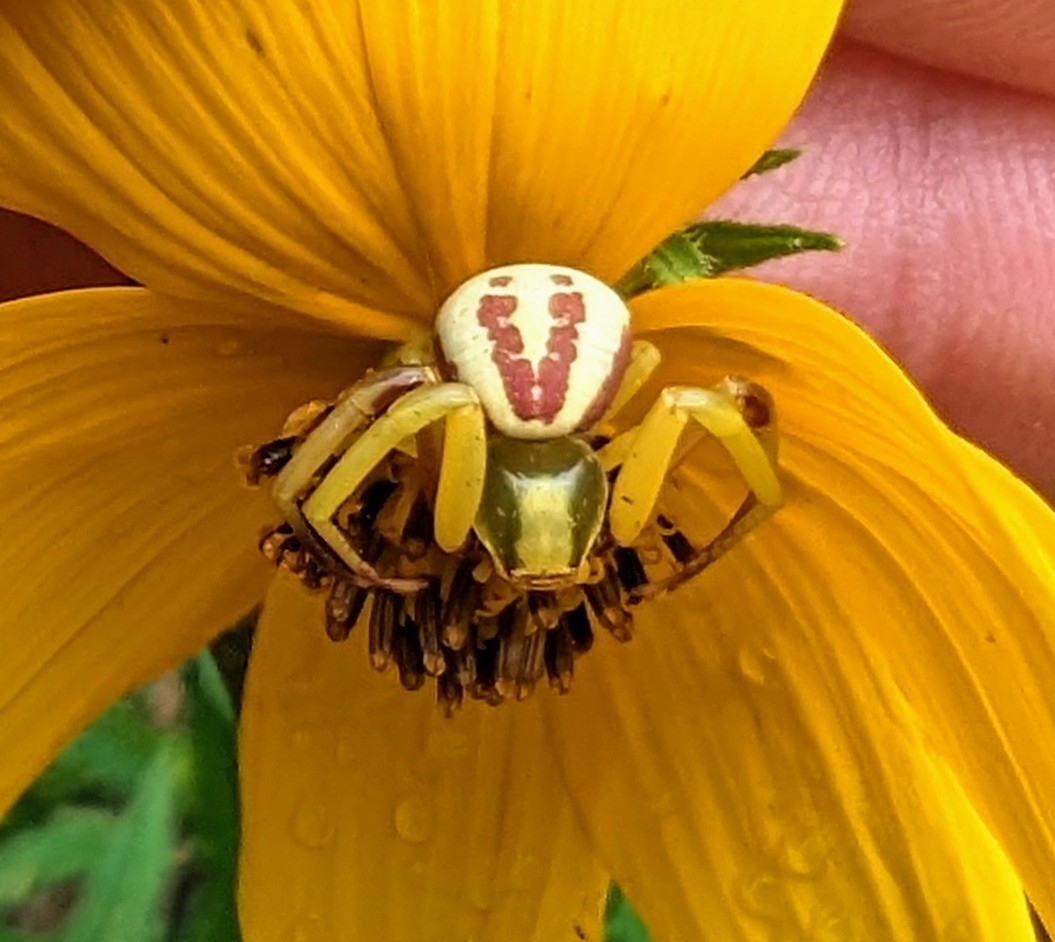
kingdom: Animalia
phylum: Arthropoda
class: Arachnida
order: Araneae
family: Thomisidae
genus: Misumenoides
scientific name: Misumenoides formosipes
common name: White-banded crab spider
